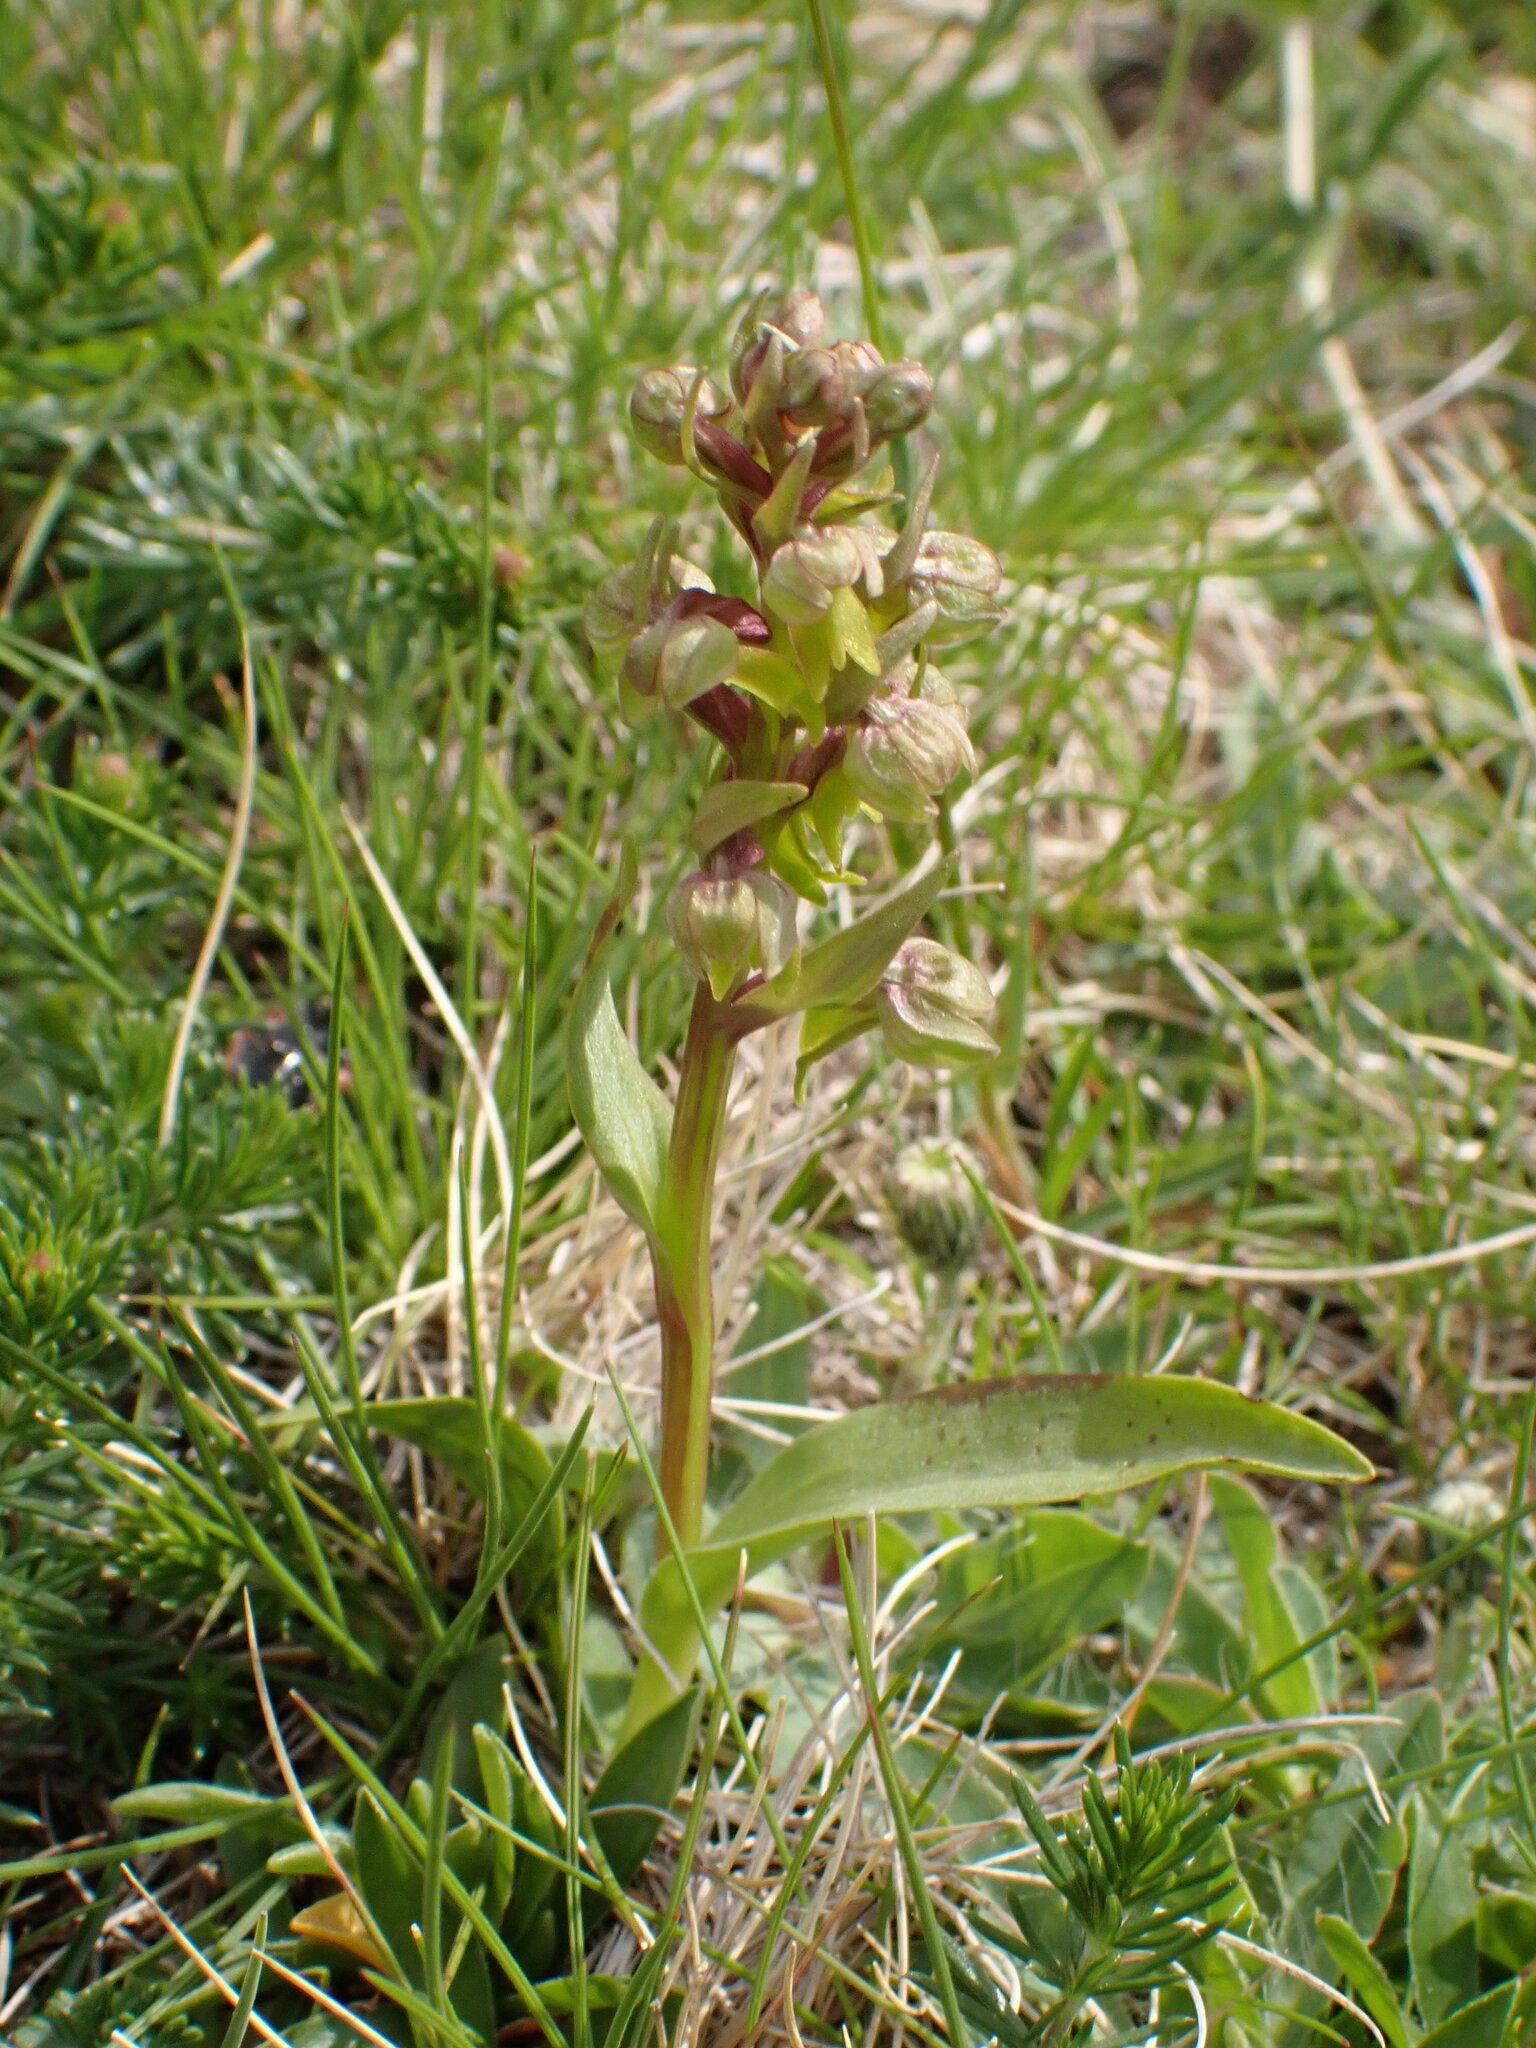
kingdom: Plantae
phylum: Tracheophyta
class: Liliopsida
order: Asparagales
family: Orchidaceae
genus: Dactylorhiza
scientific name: Dactylorhiza viridis
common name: Longbract frog orchid
